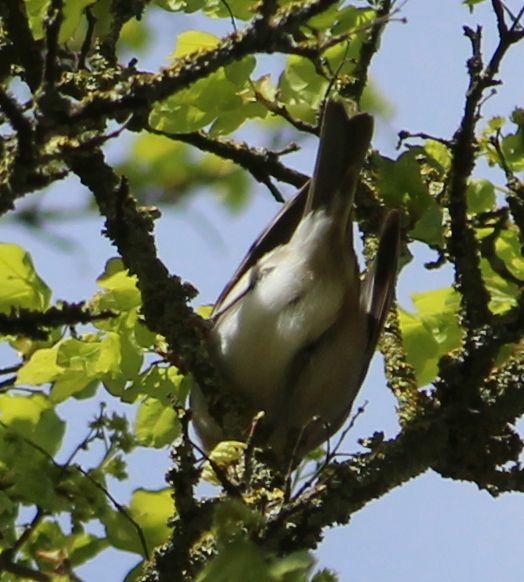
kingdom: Animalia
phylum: Chordata
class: Aves
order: Passeriformes
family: Sylviidae
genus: Sylvia
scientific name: Sylvia atricapilla
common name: Eurasian blackcap
